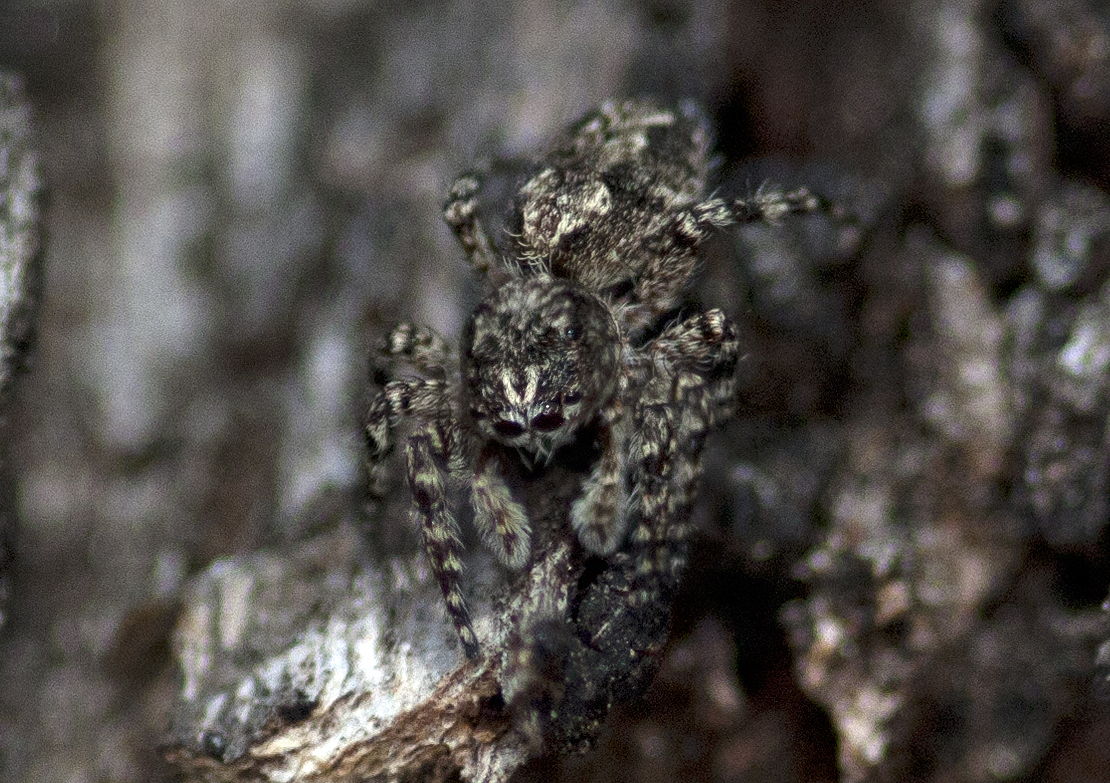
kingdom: Animalia
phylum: Arthropoda
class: Arachnida
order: Araneae
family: Salticidae
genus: Clynotis
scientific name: Clynotis severus
